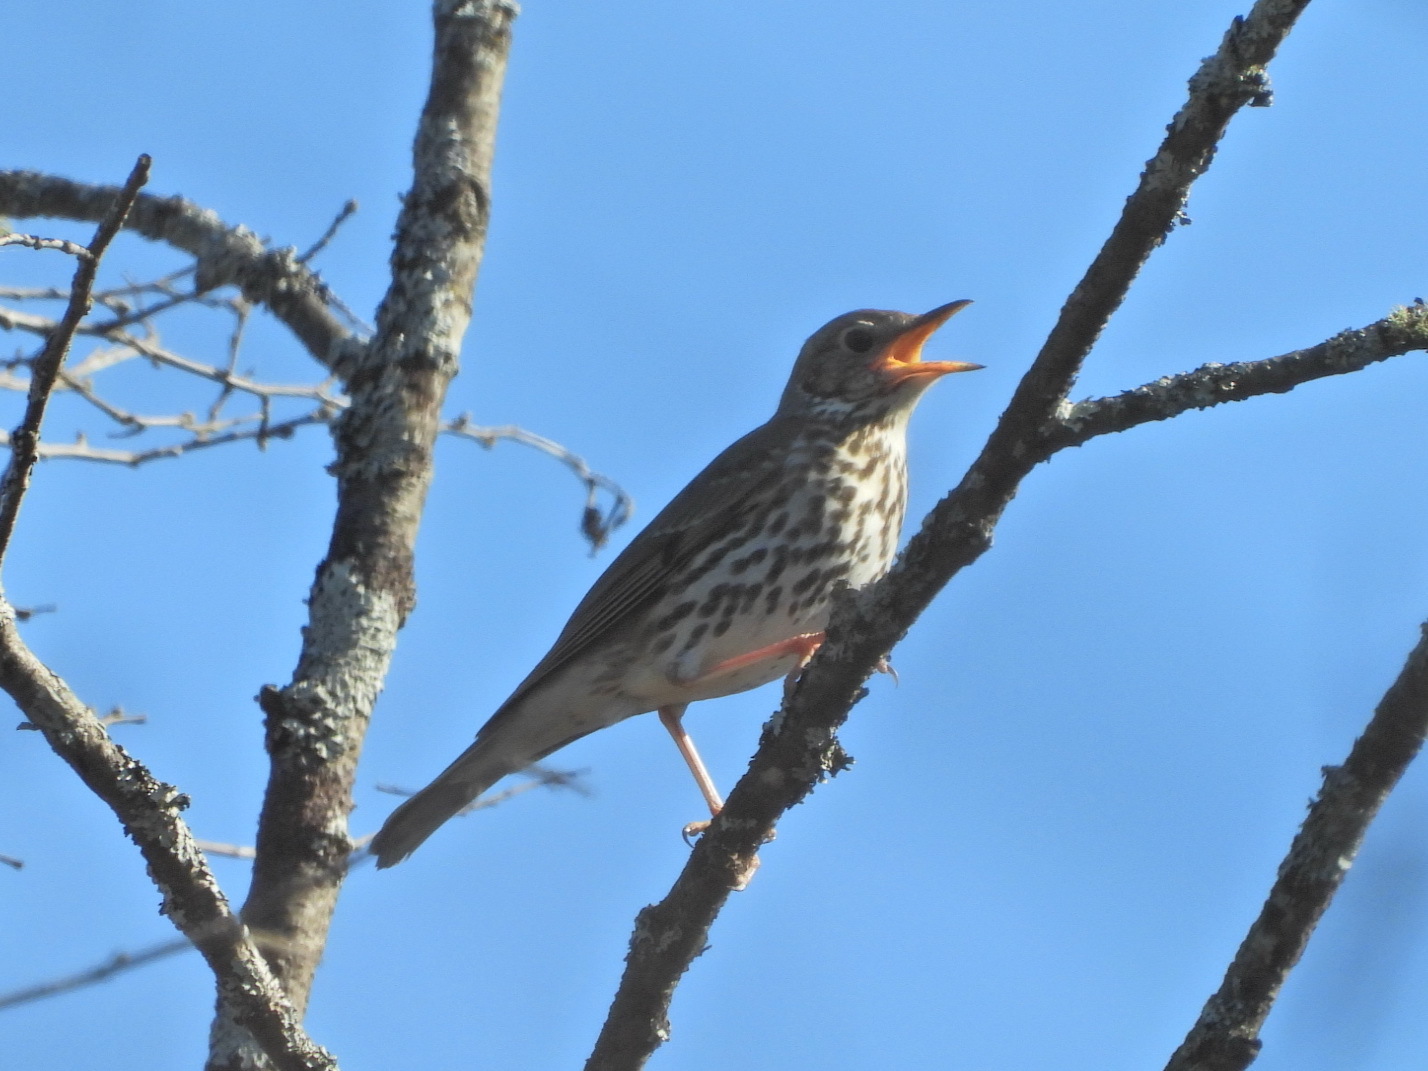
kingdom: Animalia
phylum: Chordata
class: Aves
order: Passeriformes
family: Turdidae
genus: Turdus
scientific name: Turdus philomelos
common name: Song thrush
